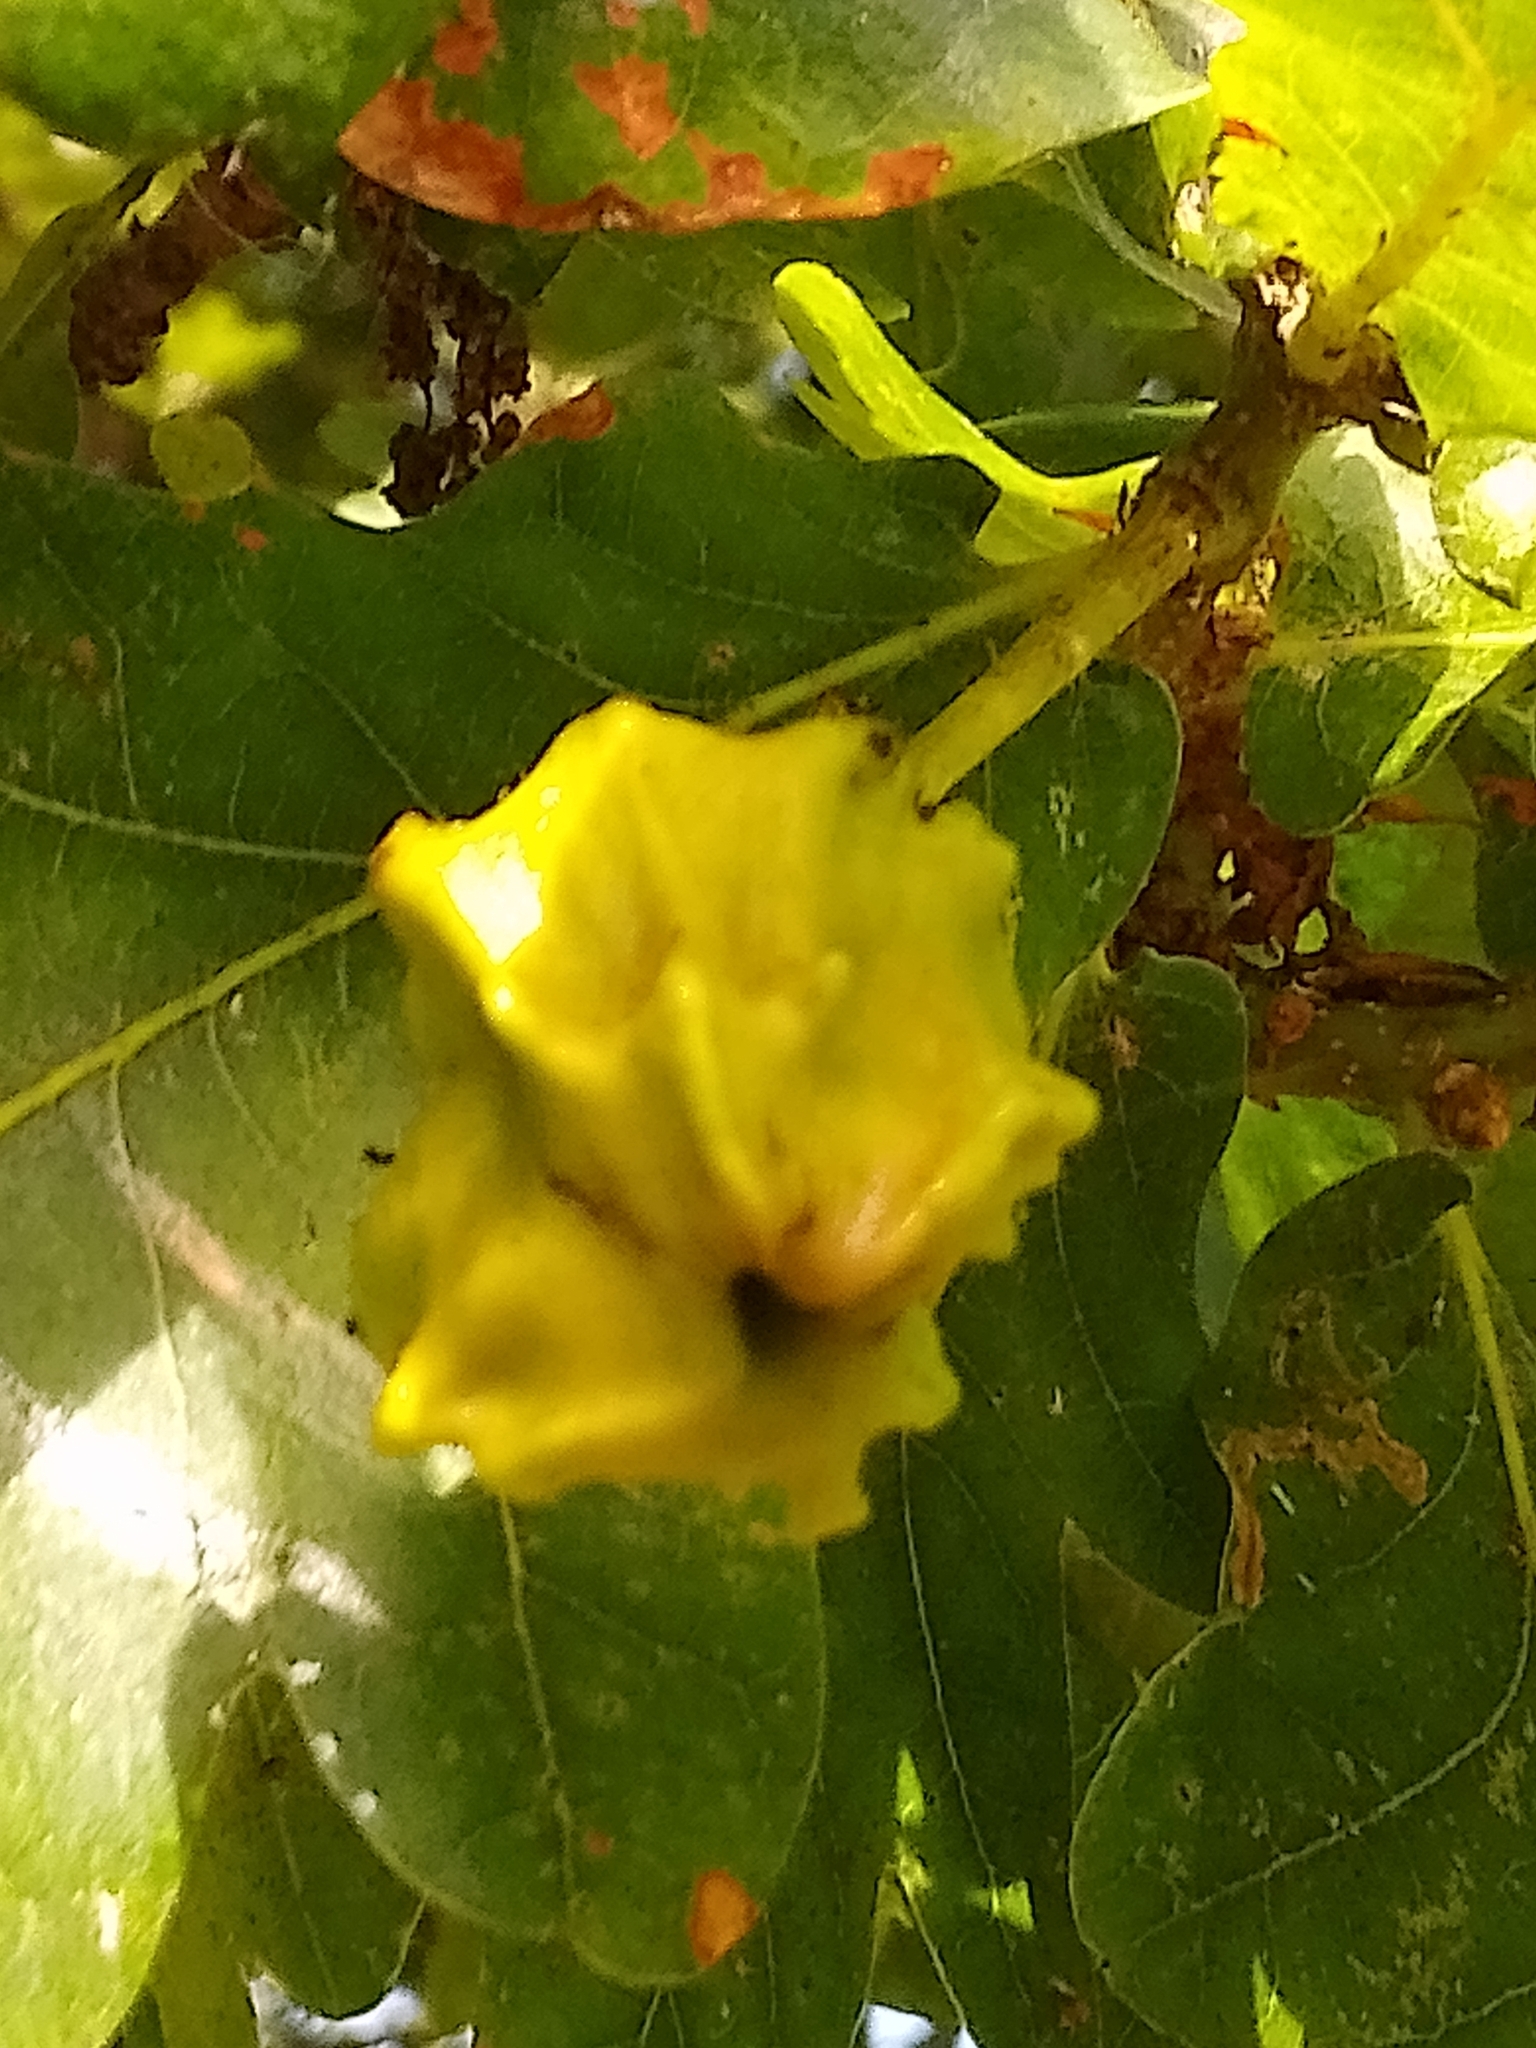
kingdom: Animalia
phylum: Arthropoda
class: Insecta
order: Hymenoptera
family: Cynipidae
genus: Andricus
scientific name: Andricus quercuscalicis
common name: Knopper gall
